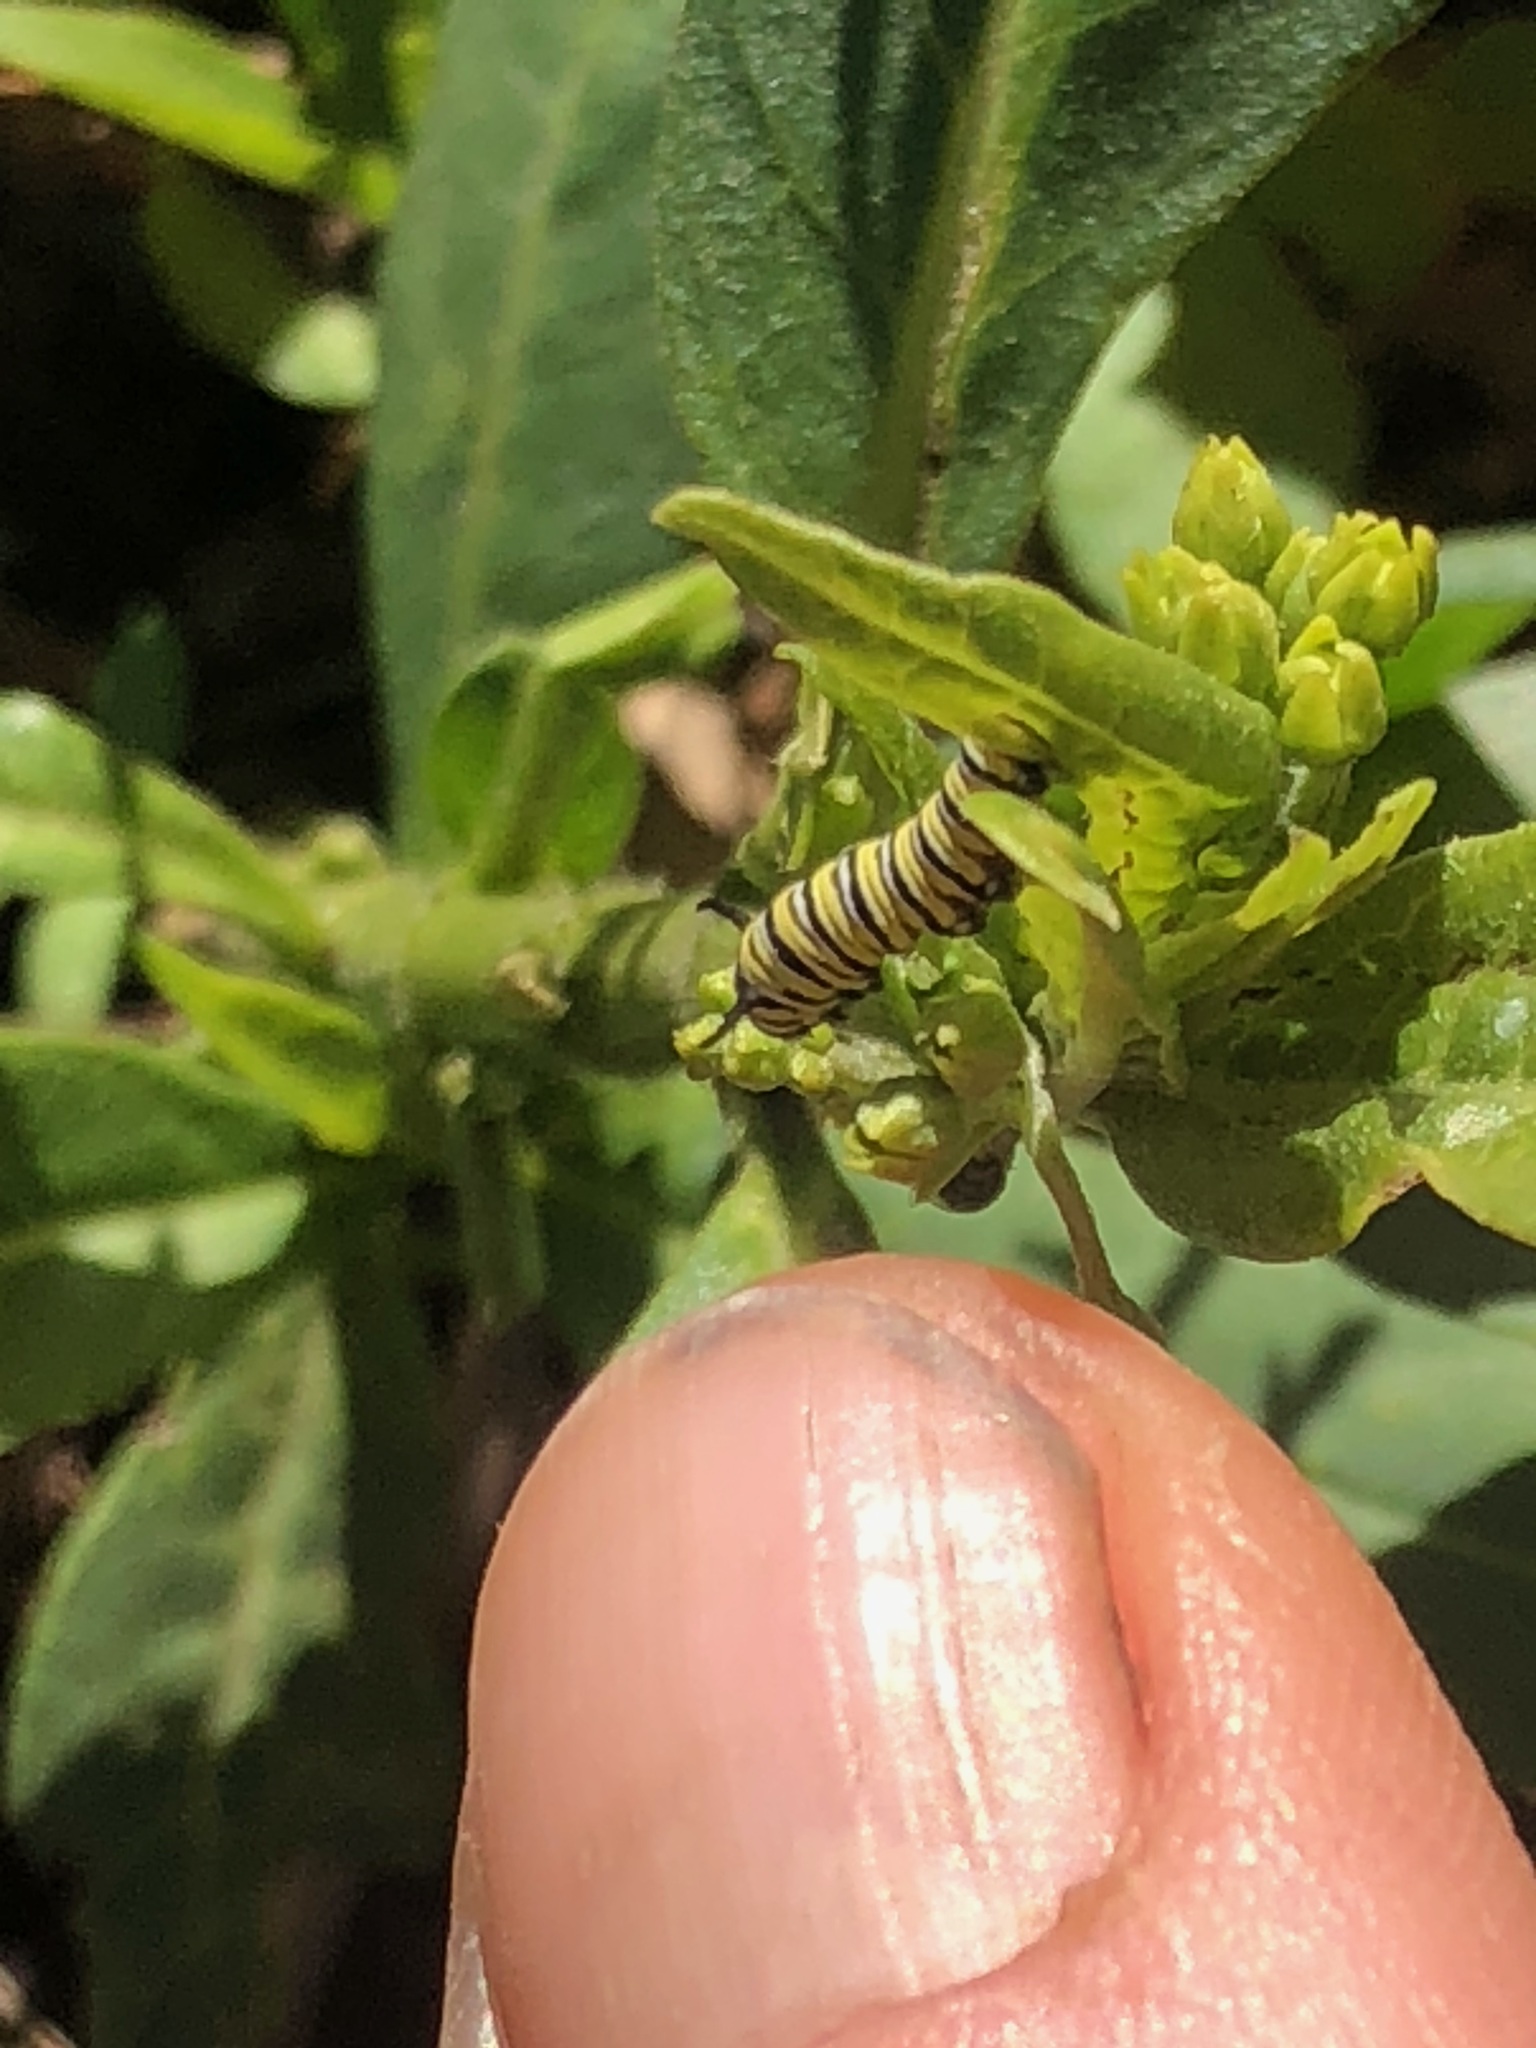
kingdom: Animalia
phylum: Arthropoda
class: Insecta
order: Lepidoptera
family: Nymphalidae
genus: Danaus
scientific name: Danaus plexippus
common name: Monarch
